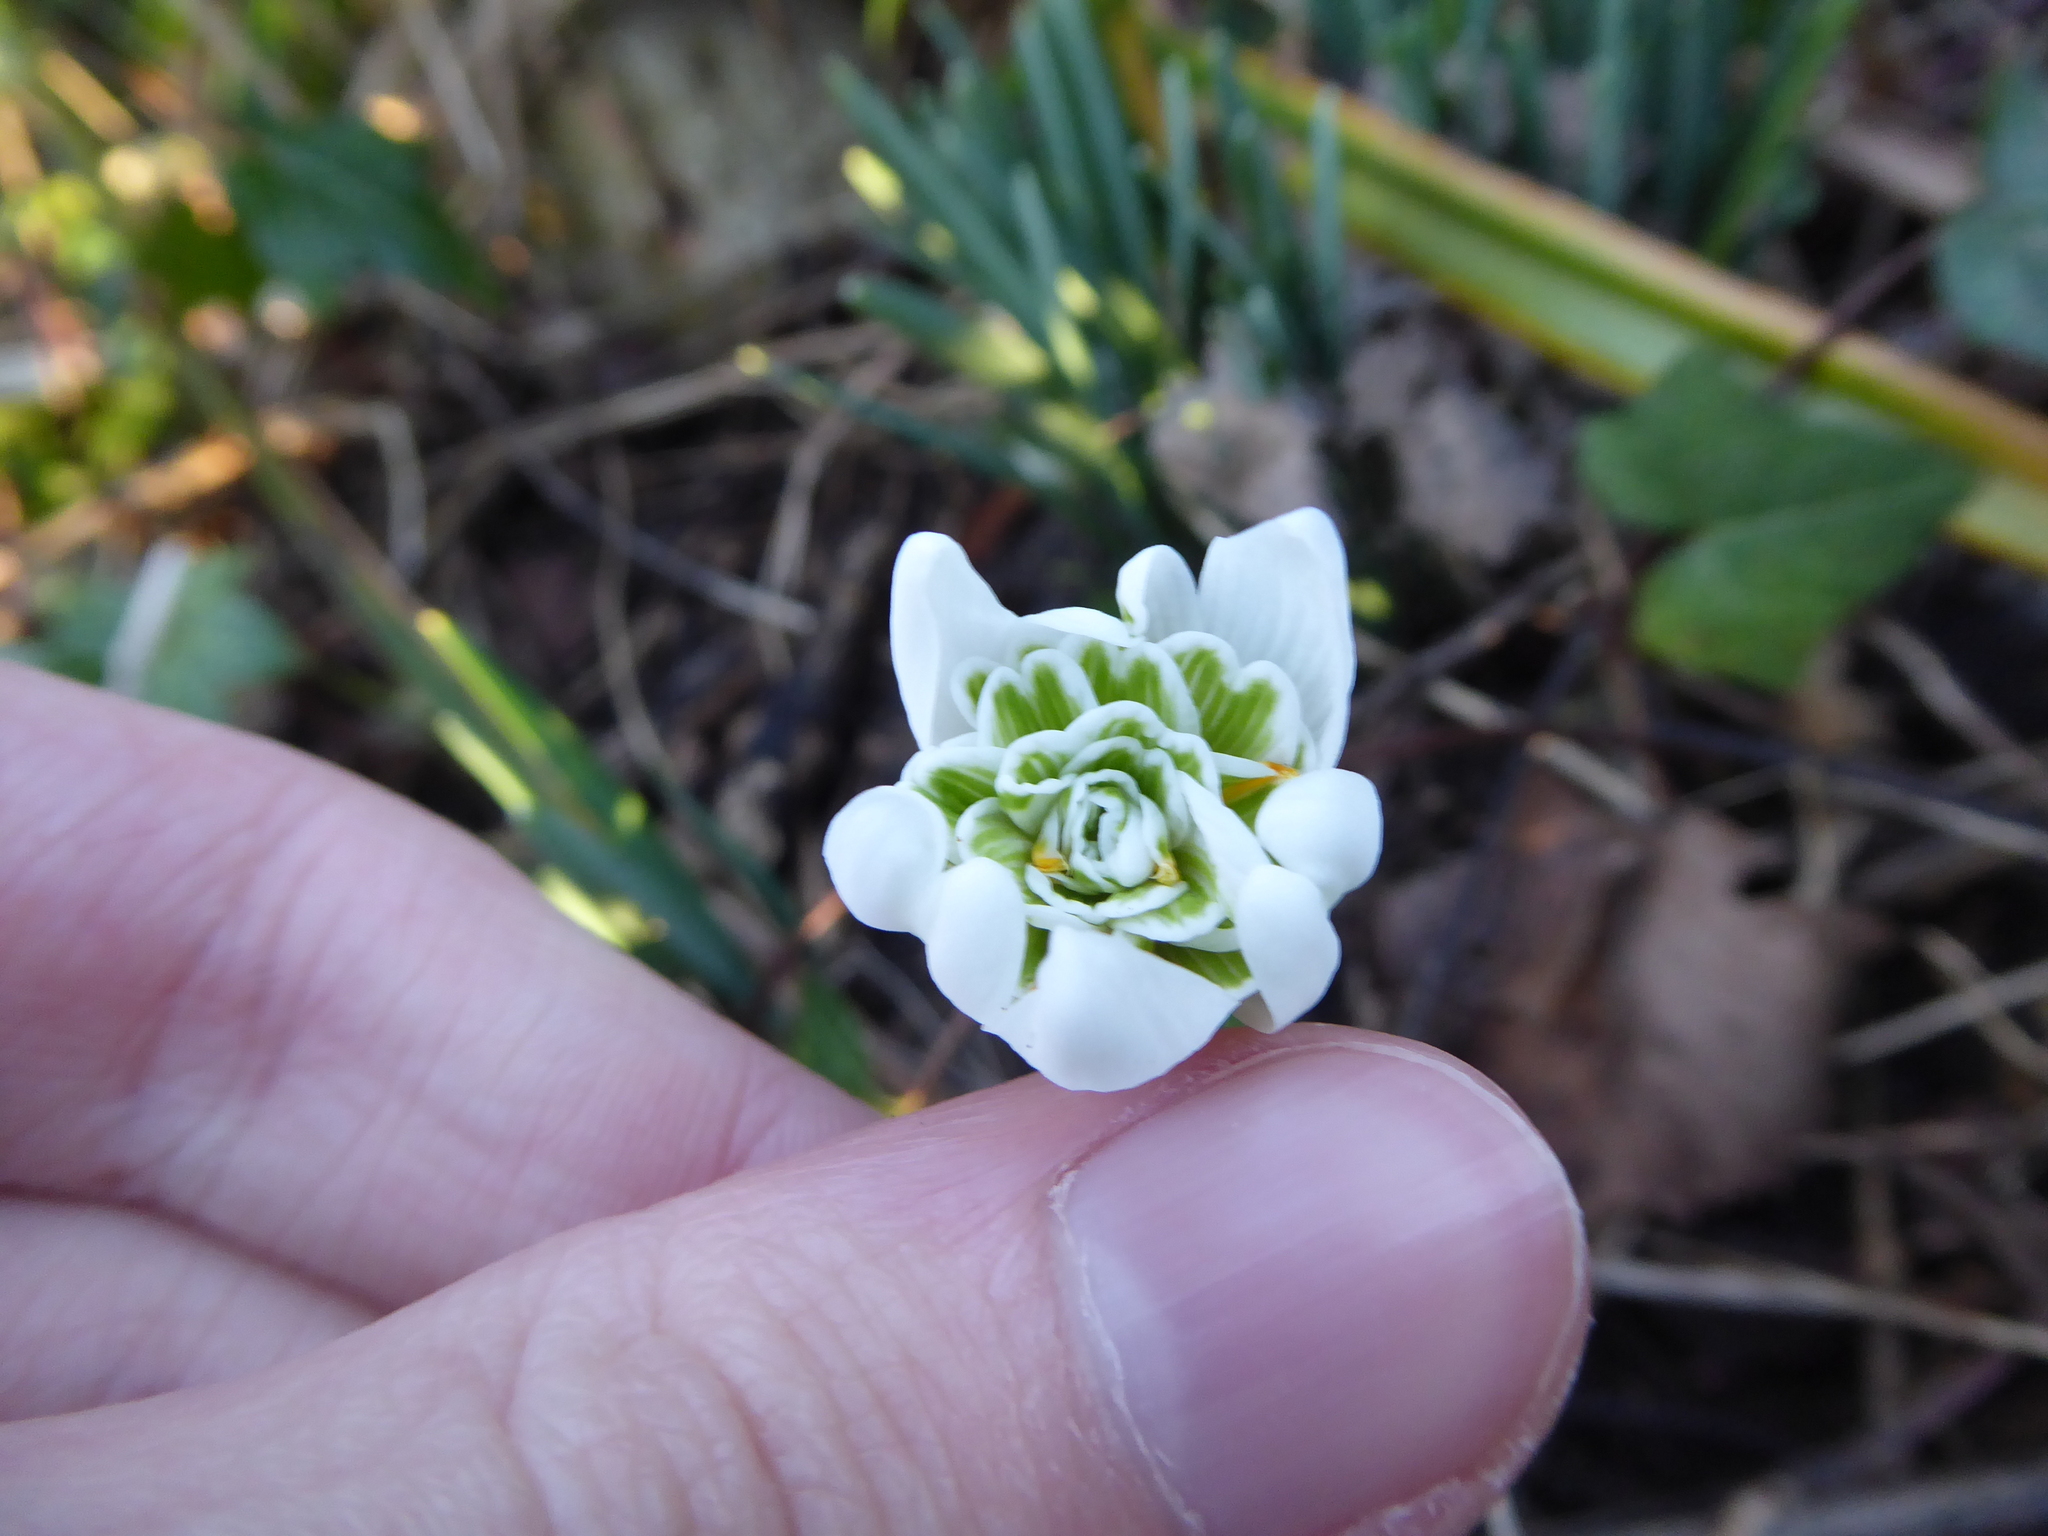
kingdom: Plantae
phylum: Tracheophyta
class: Liliopsida
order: Asparagales
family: Amaryllidaceae
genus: Galanthus
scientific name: Galanthus nivalis
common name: Snowdrop
